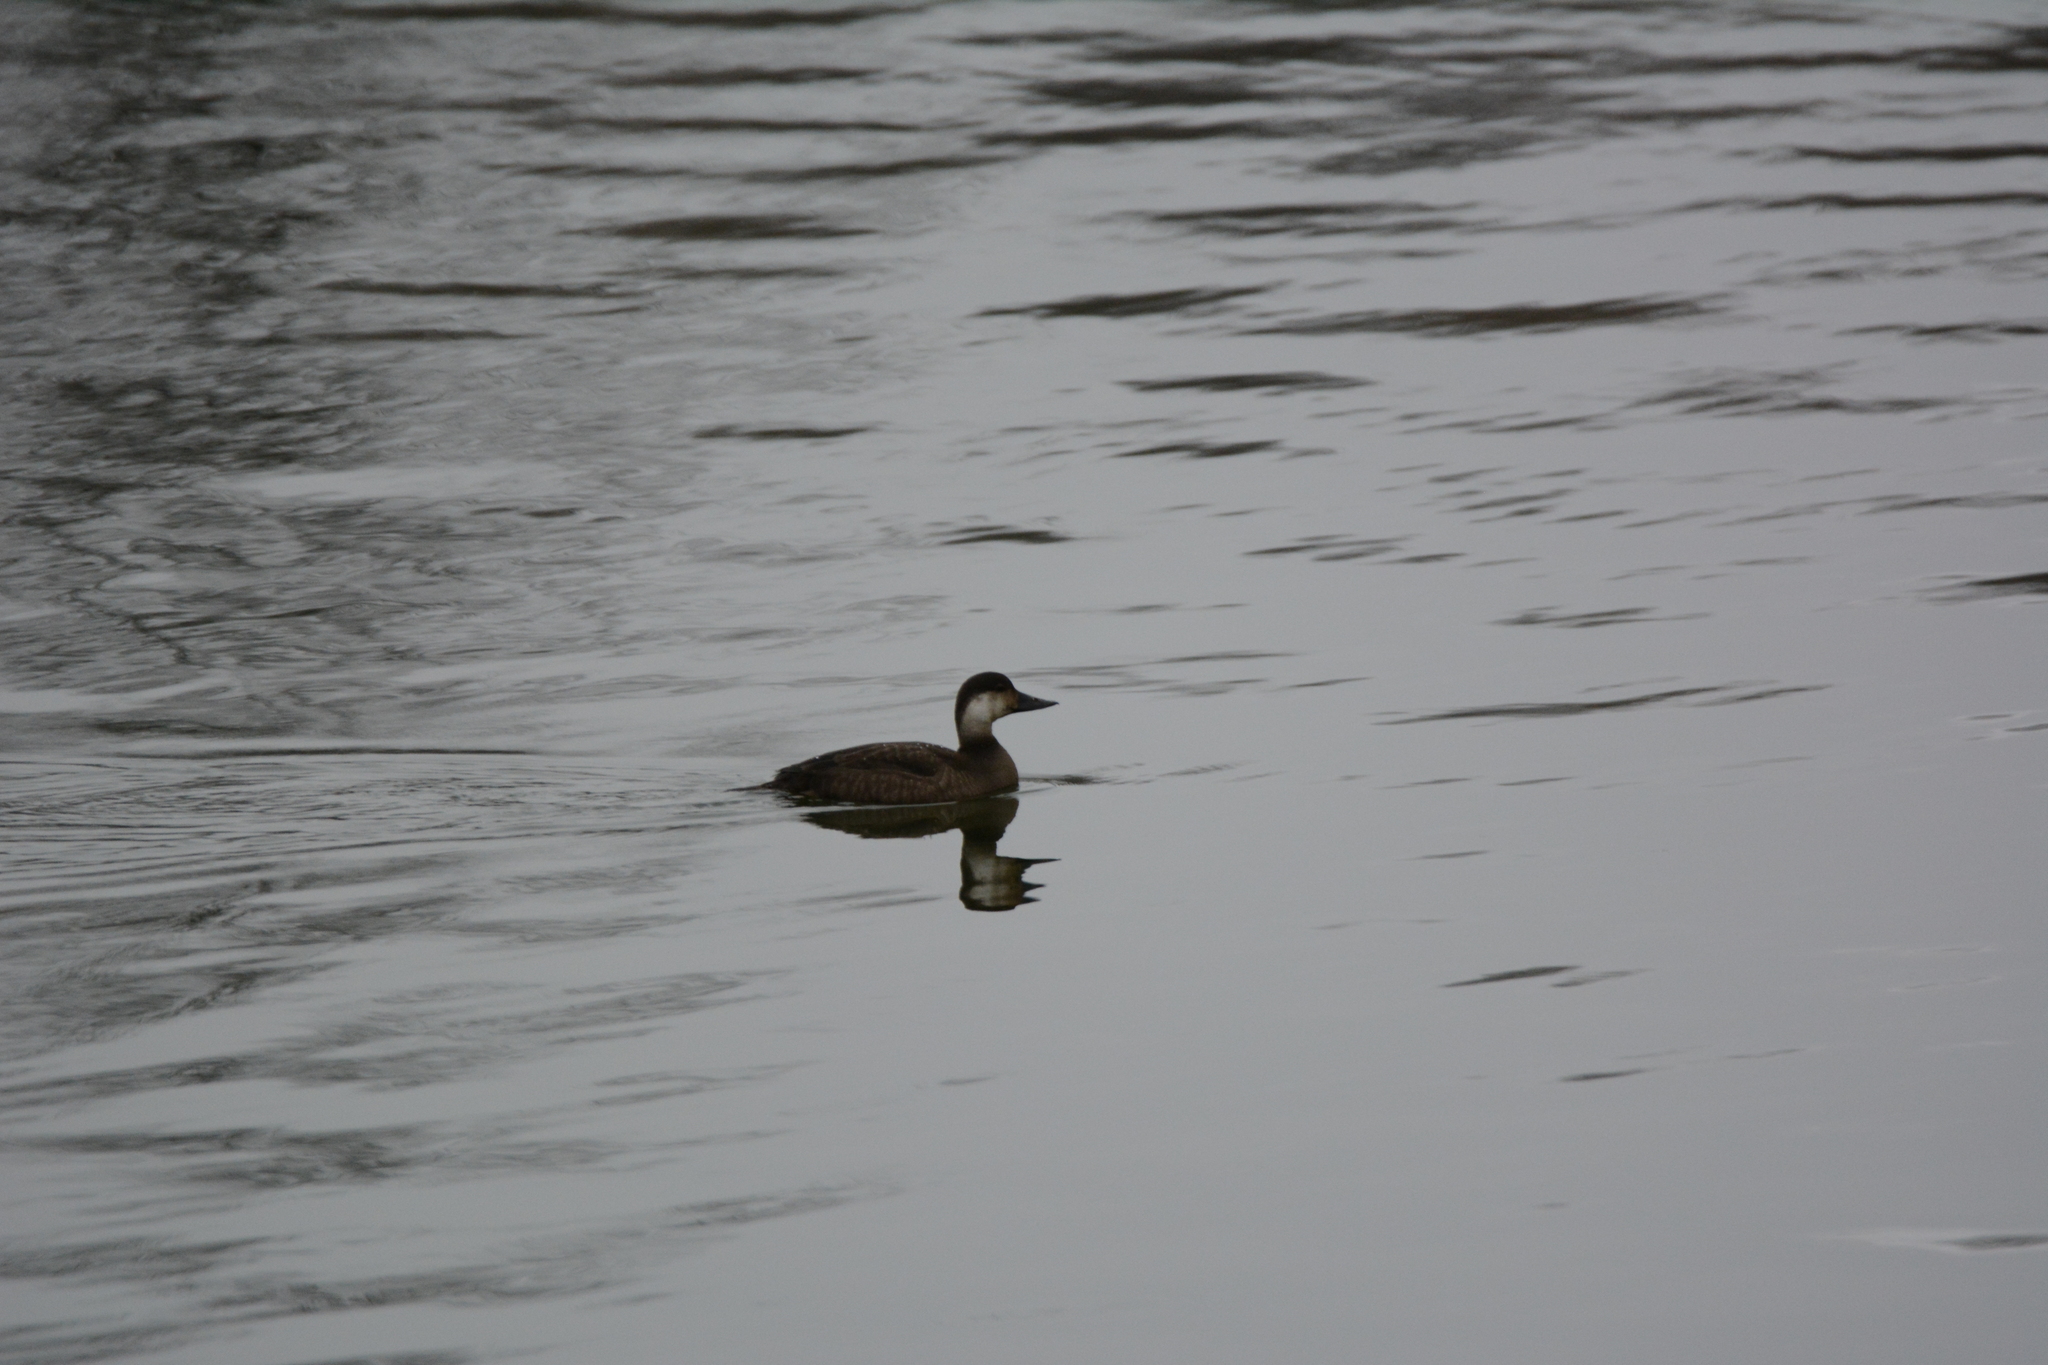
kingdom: Animalia
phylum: Chordata
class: Aves
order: Anseriformes
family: Anatidae
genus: Melanitta
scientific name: Melanitta nigra
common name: Common scoter
